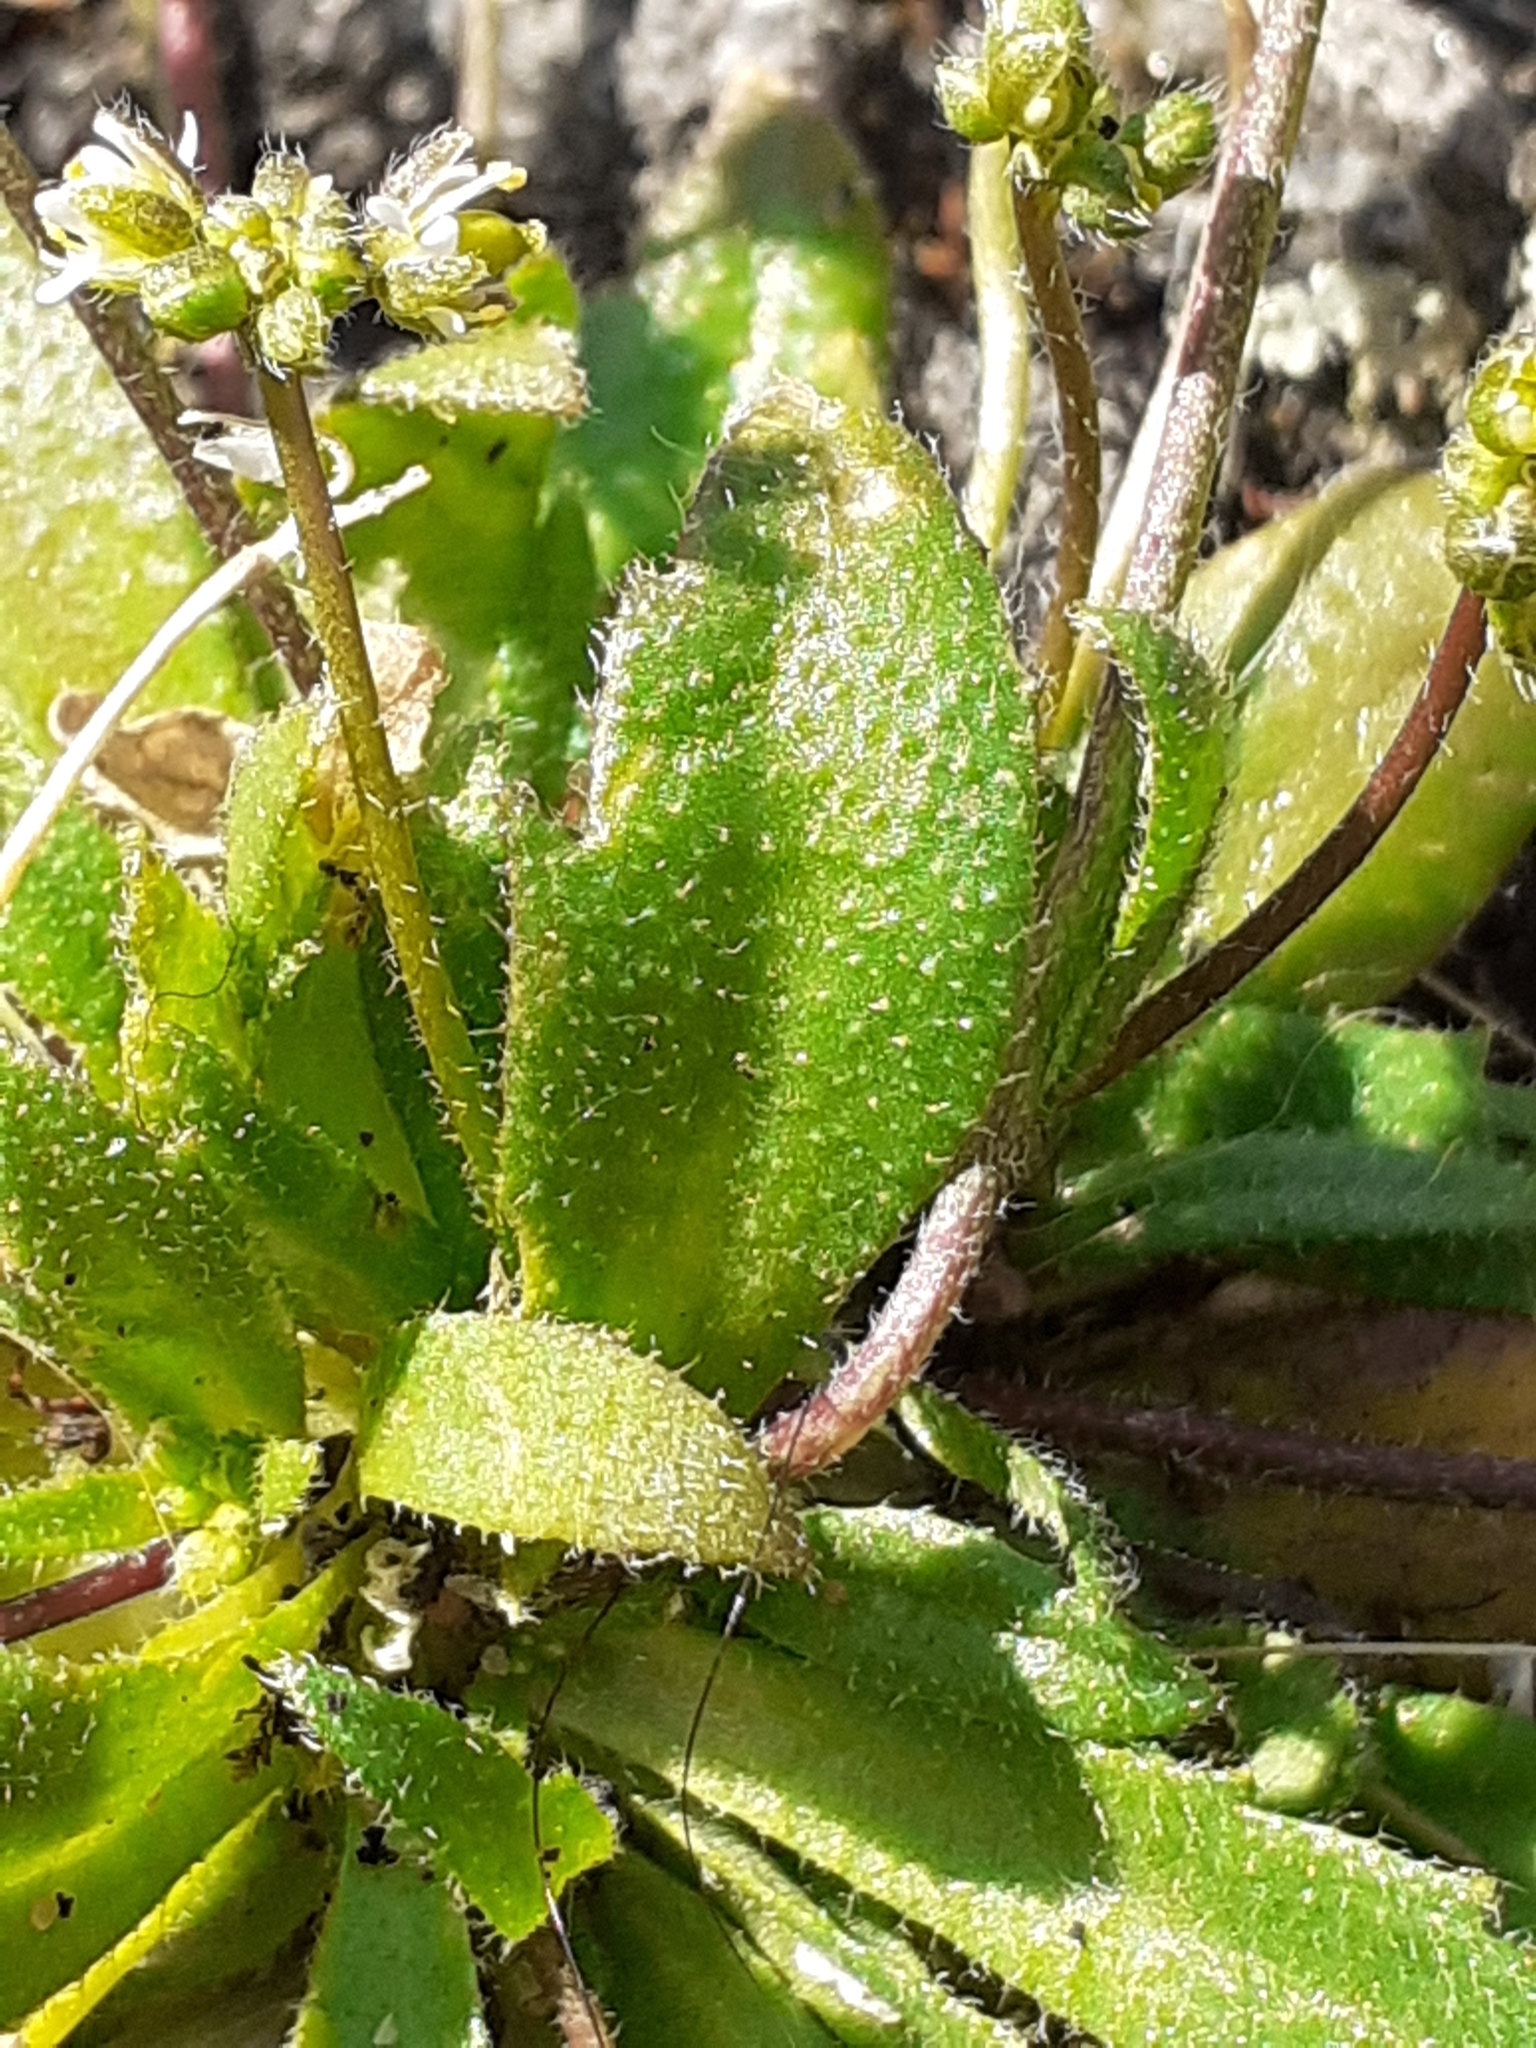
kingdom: Plantae
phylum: Tracheophyta
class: Magnoliopsida
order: Brassicales
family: Brassicaceae
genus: Draba
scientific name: Draba verna
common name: Spring draba
